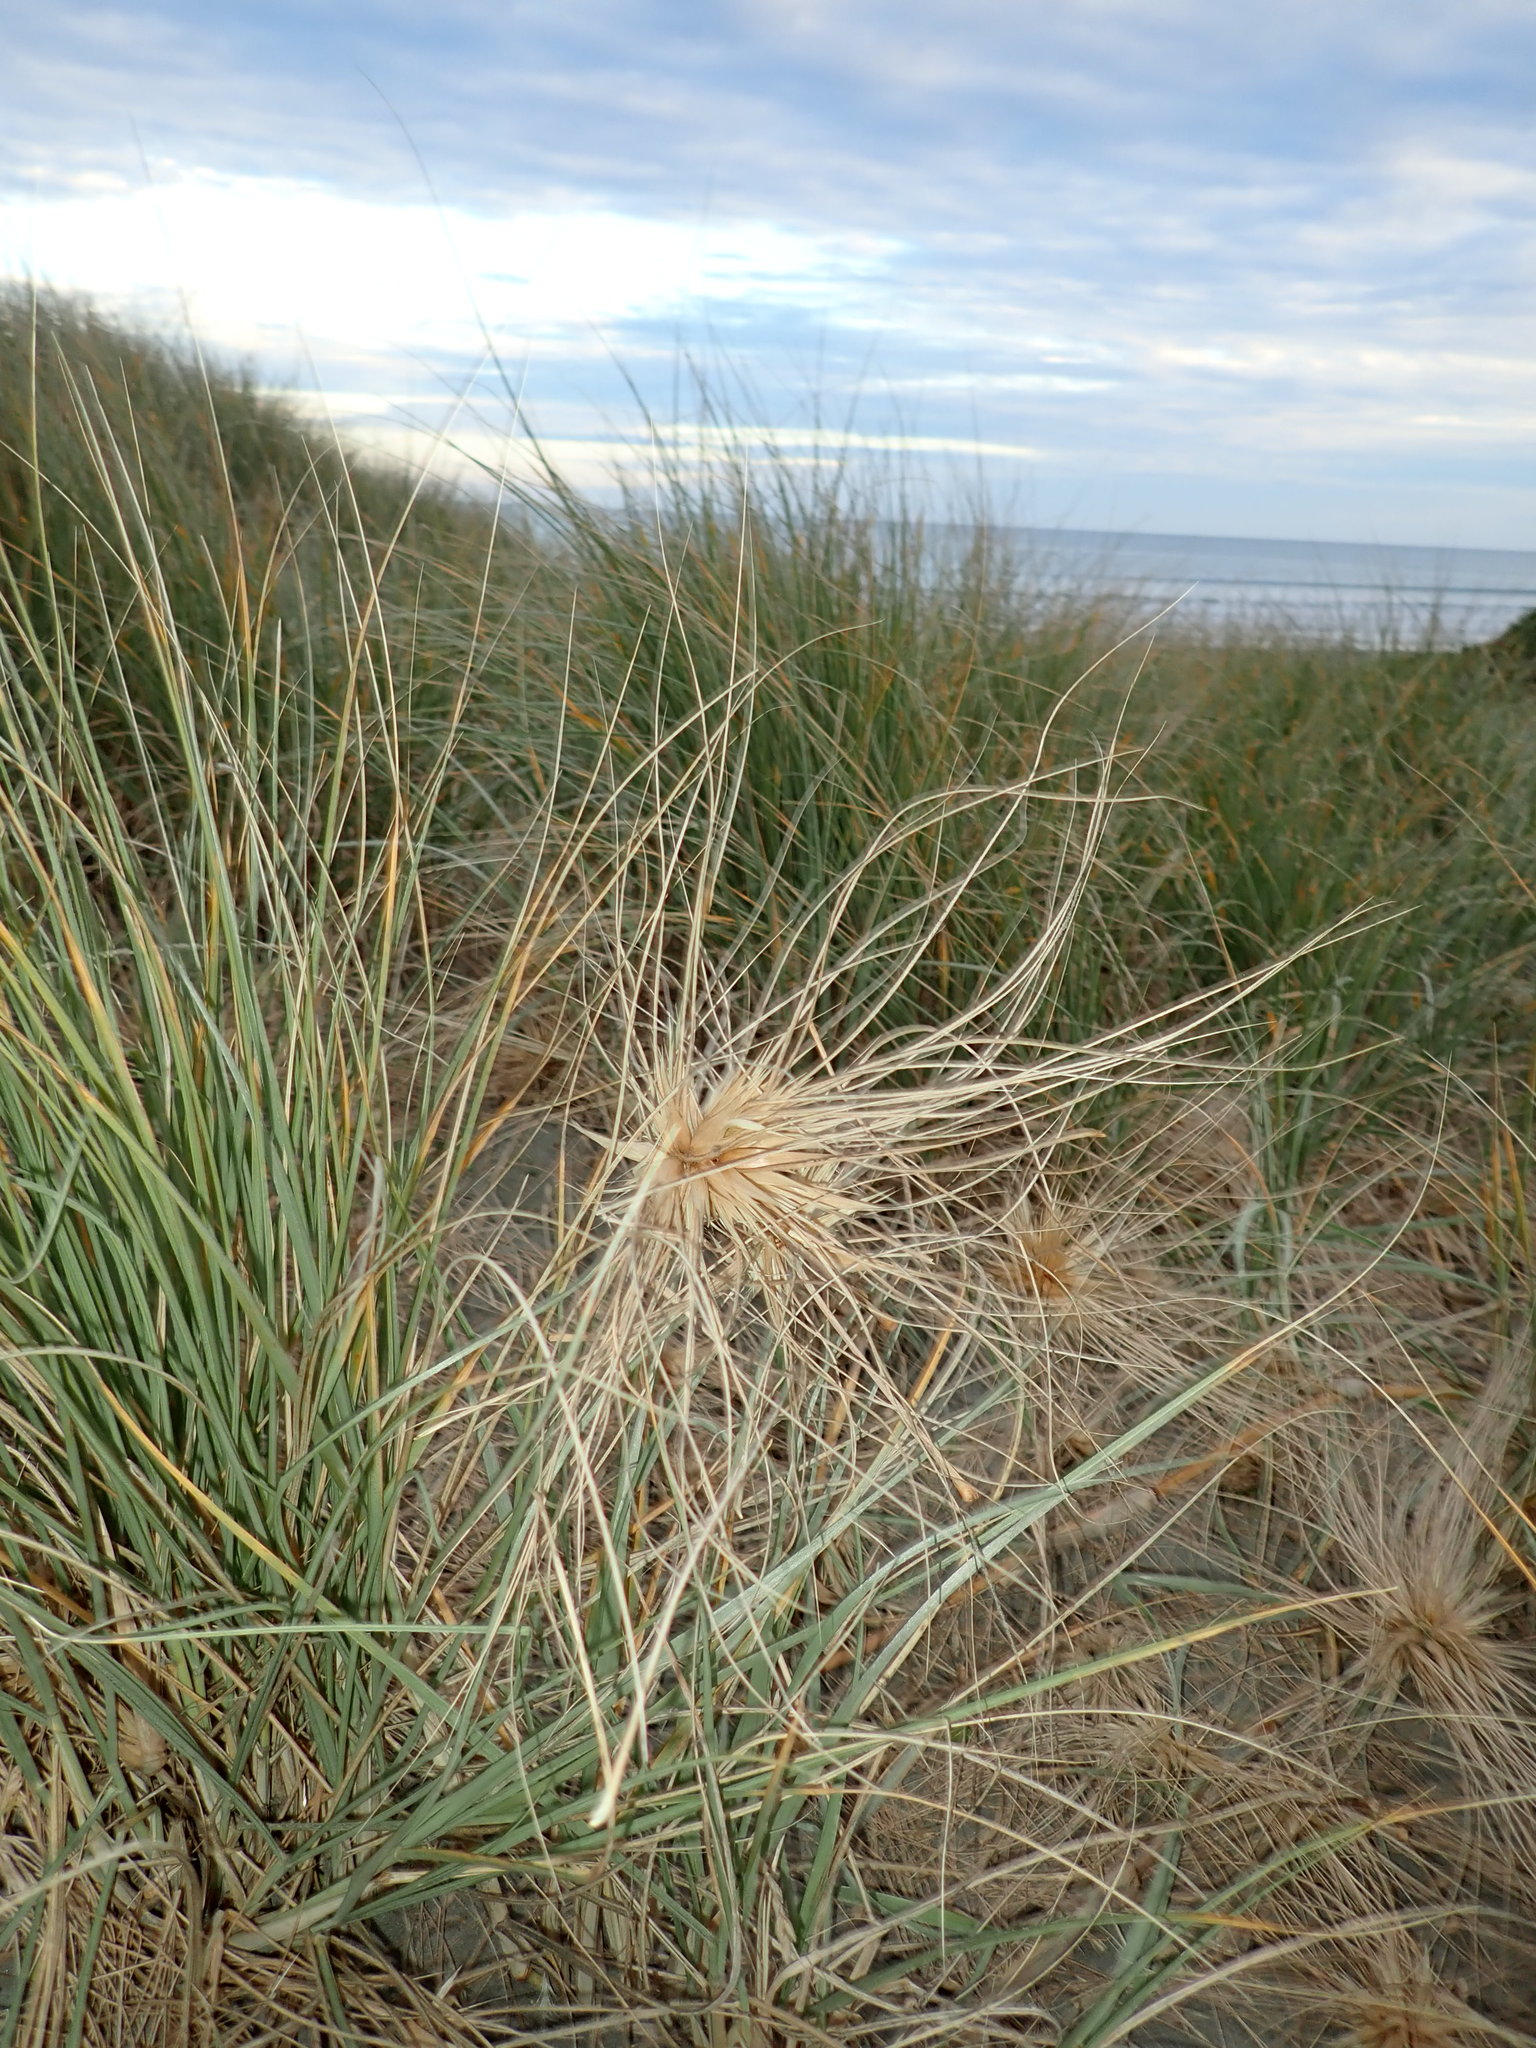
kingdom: Plantae
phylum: Tracheophyta
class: Liliopsida
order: Poales
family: Poaceae
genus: Spinifex
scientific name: Spinifex sericeus
